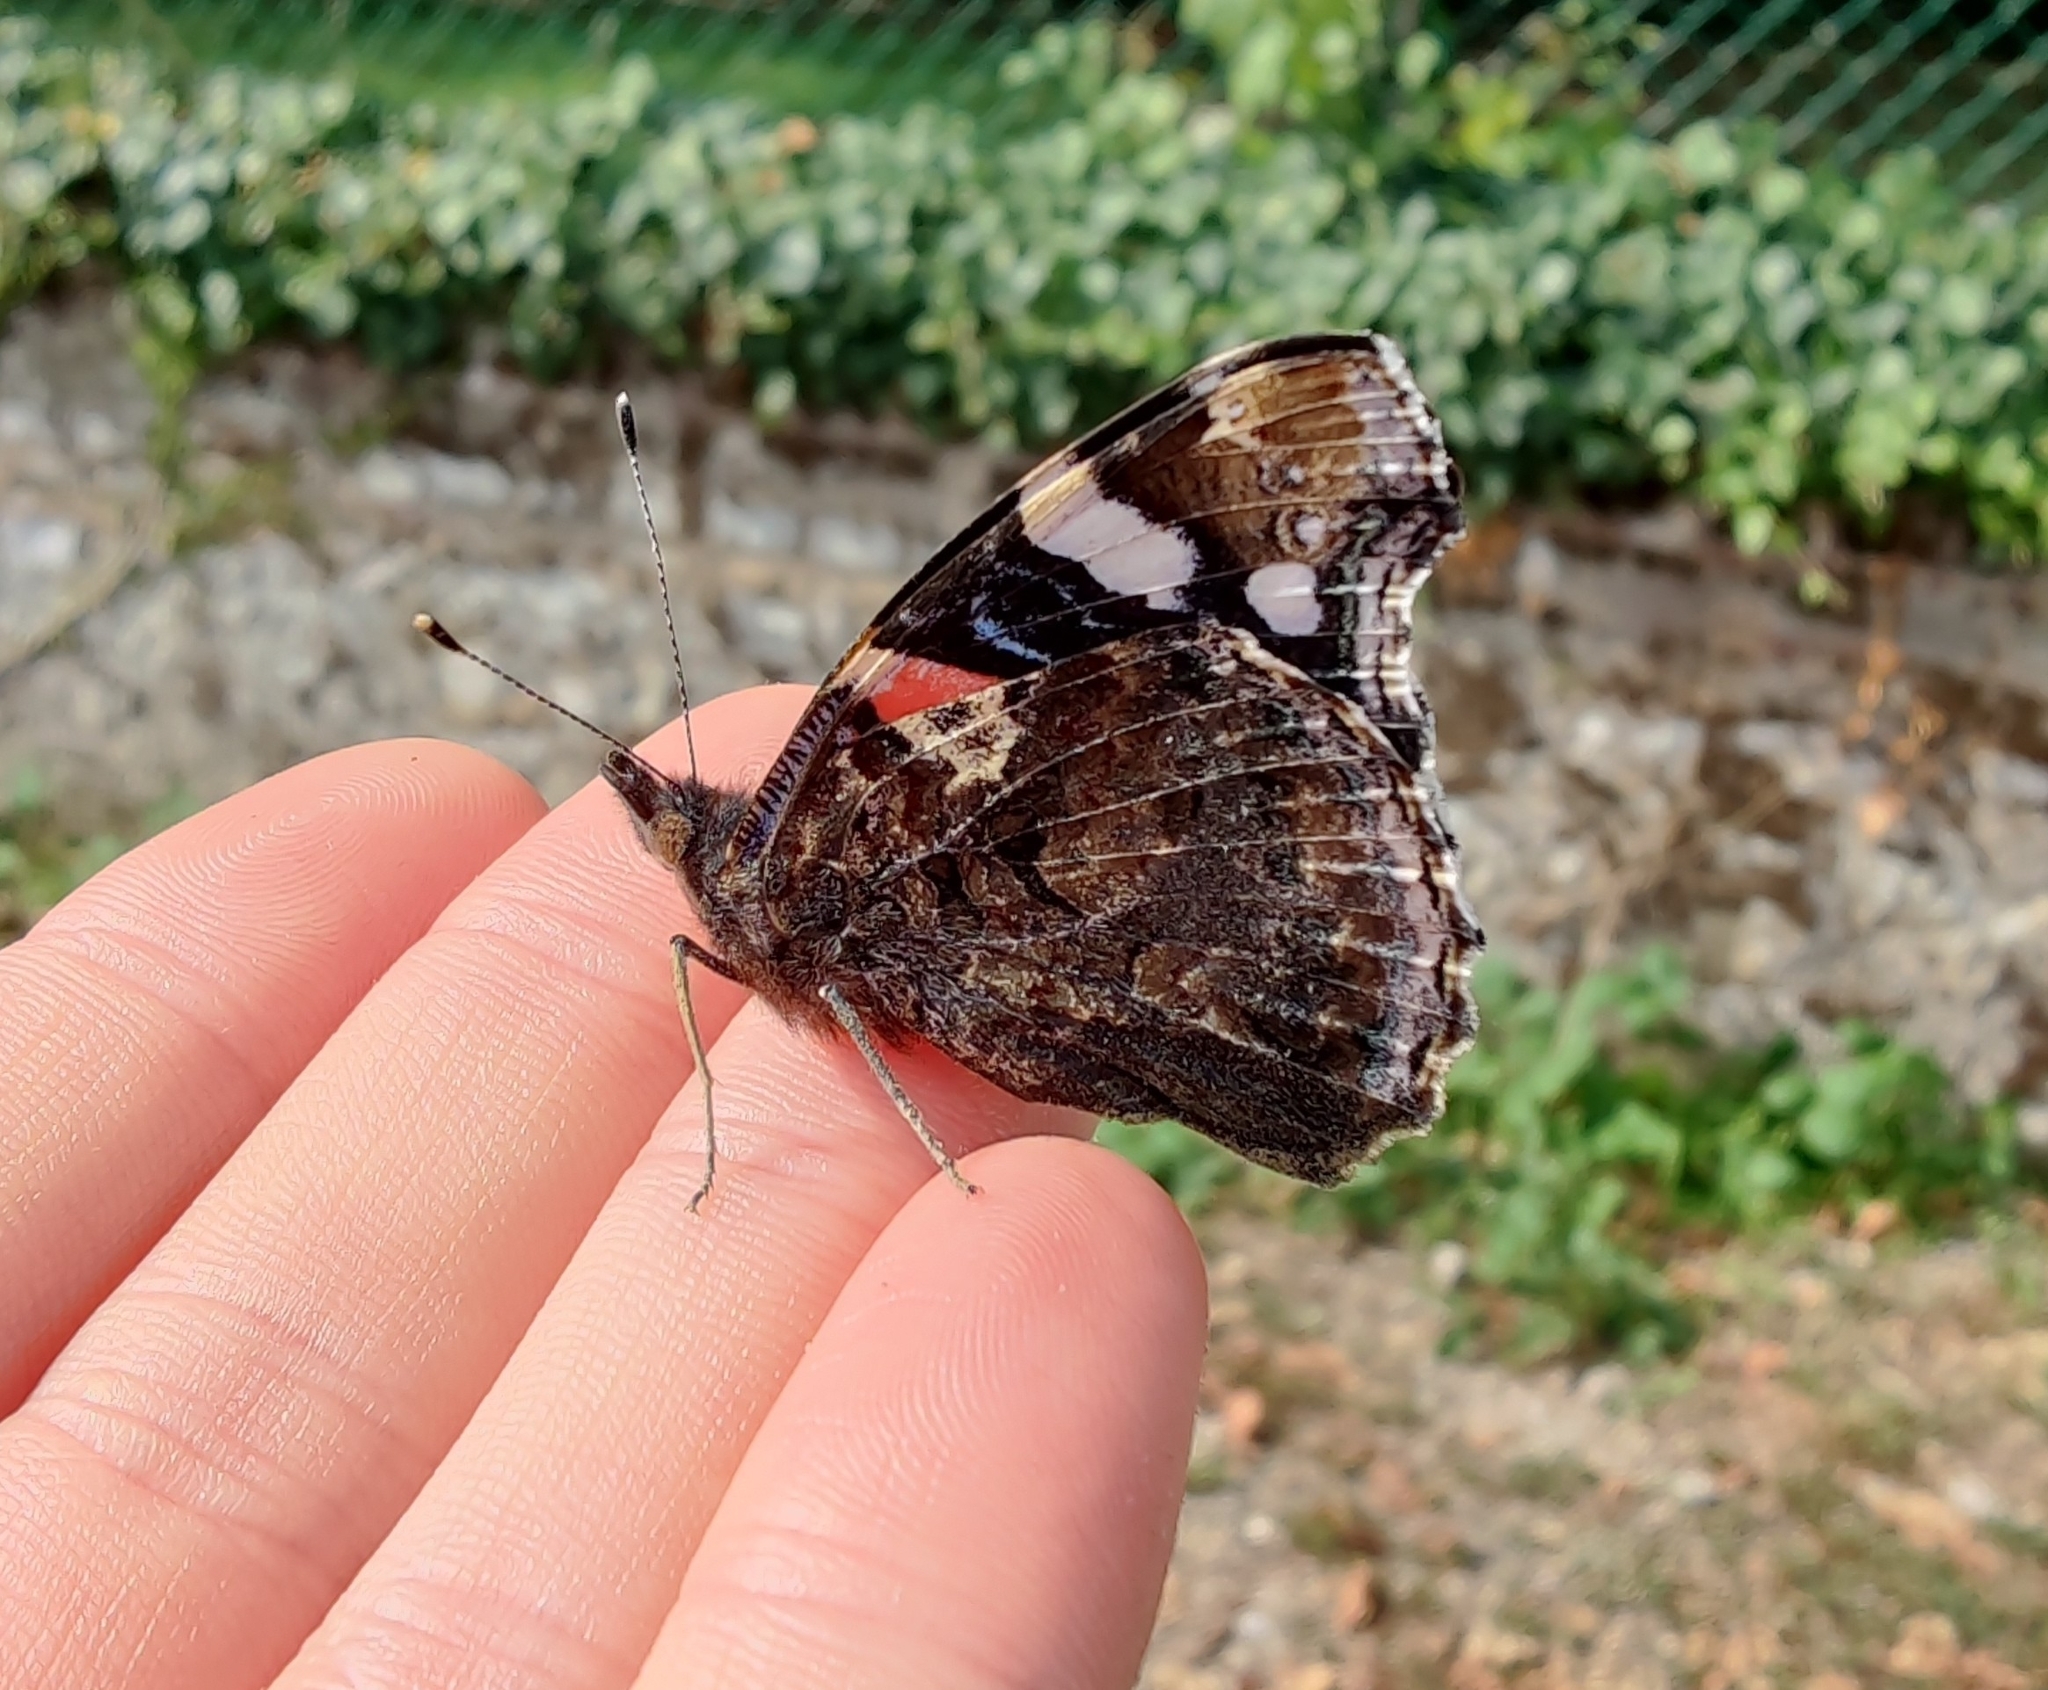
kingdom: Animalia
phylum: Arthropoda
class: Insecta
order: Lepidoptera
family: Nymphalidae
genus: Vanessa
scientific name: Vanessa atalanta
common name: Red admiral
